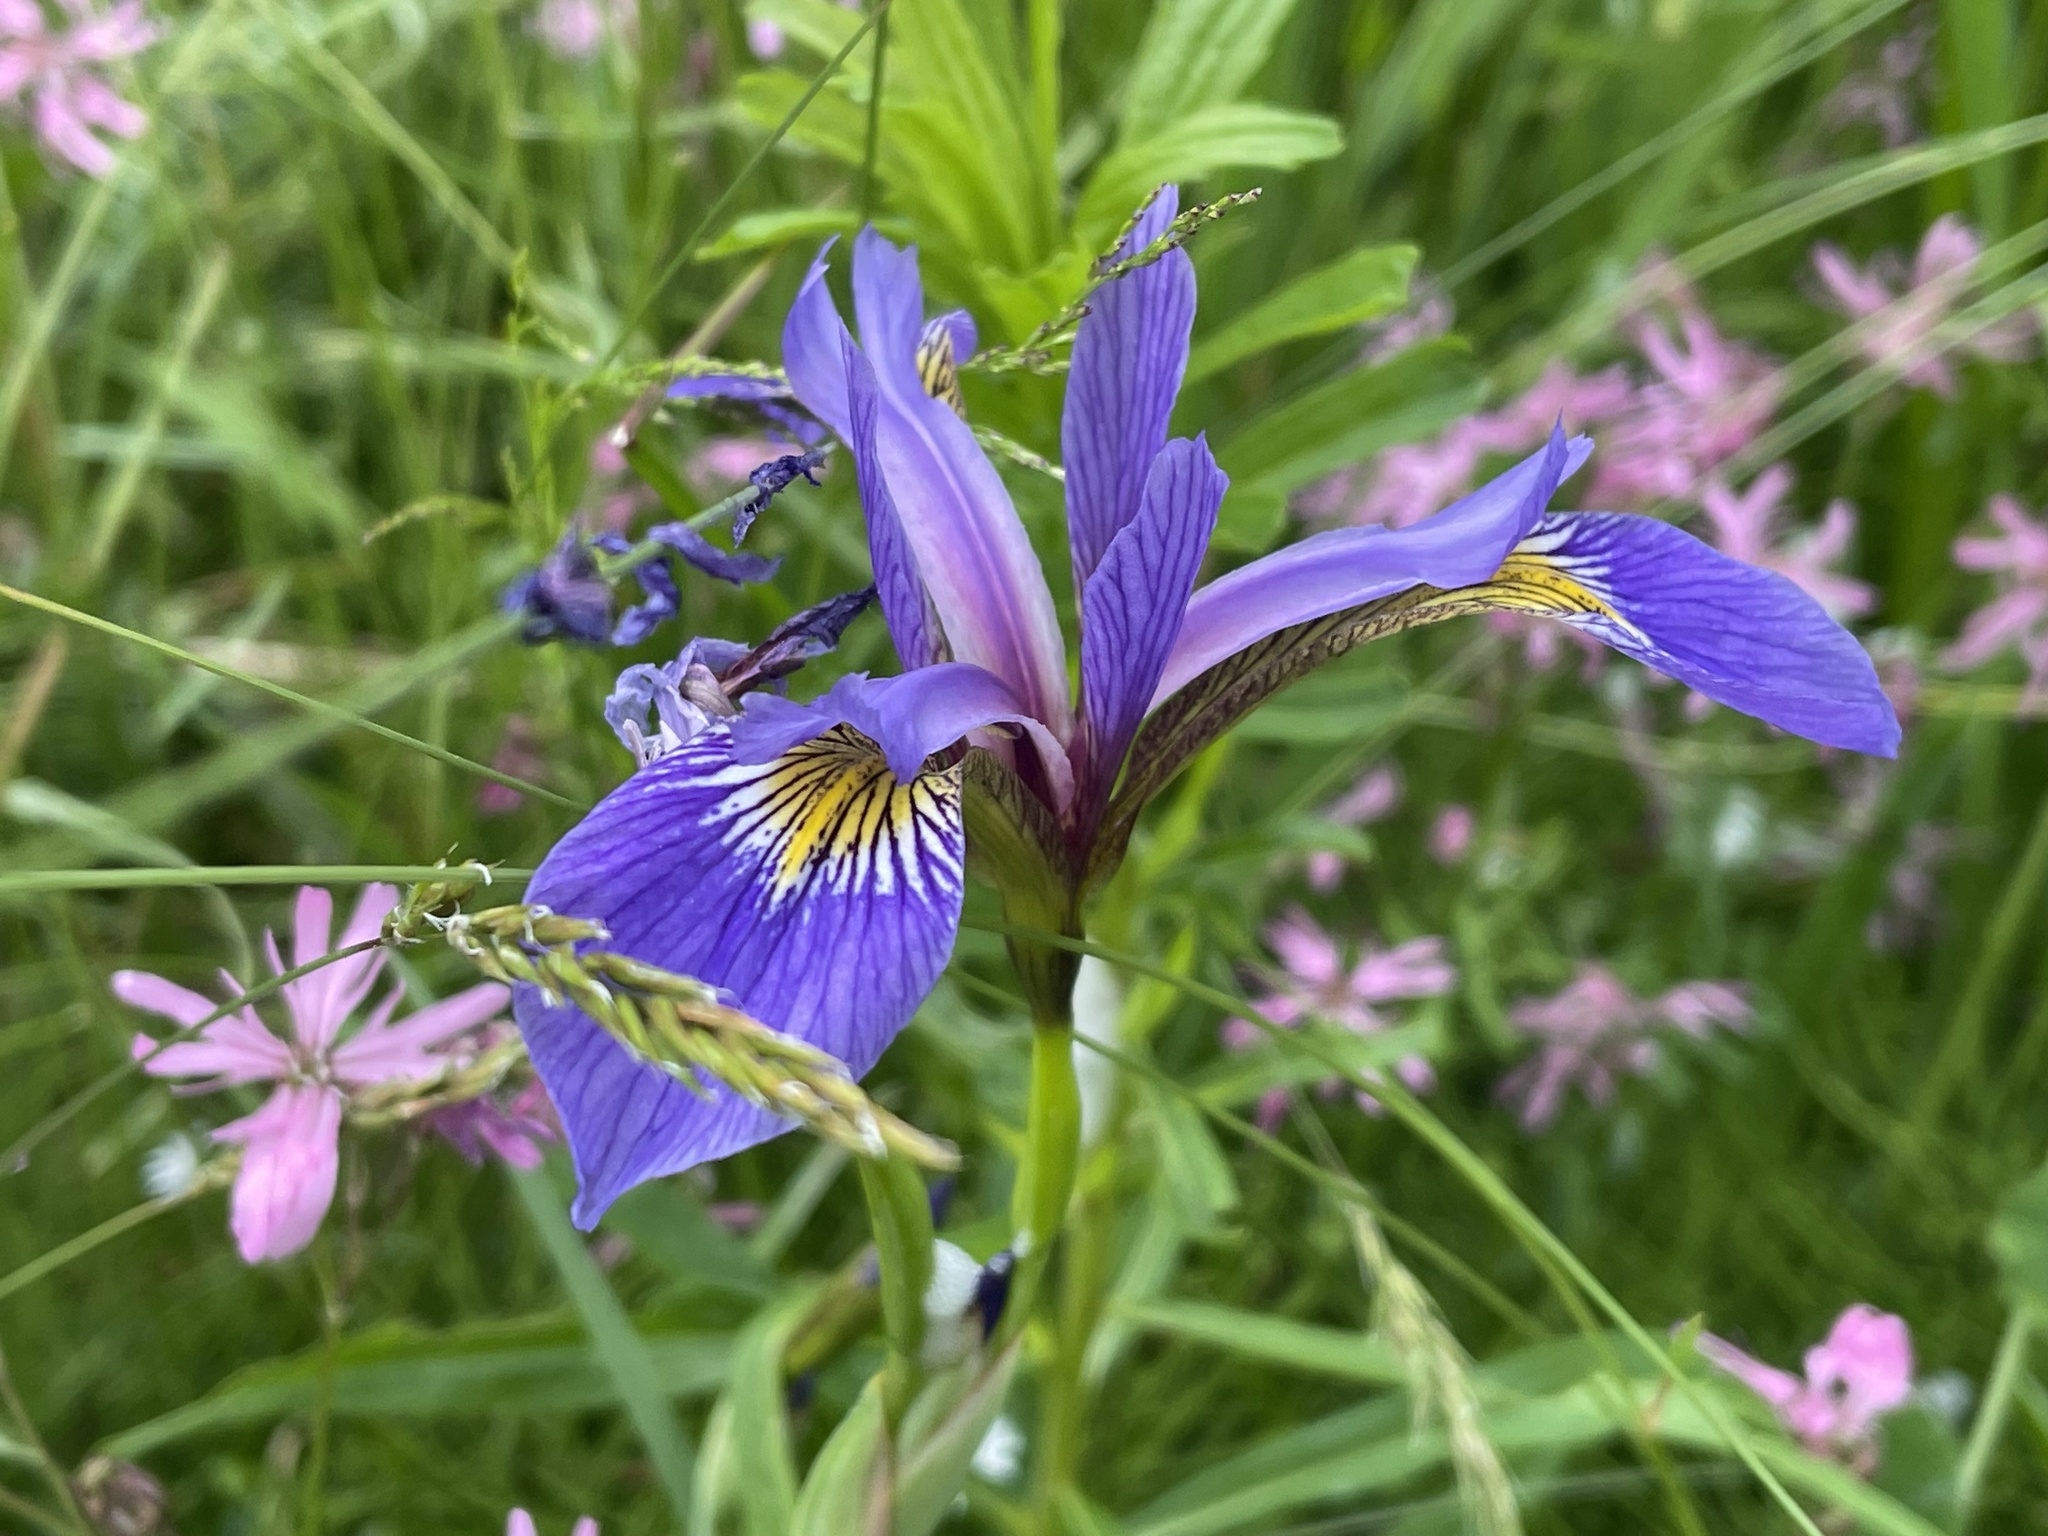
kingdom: Plantae
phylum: Tracheophyta
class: Liliopsida
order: Asparagales
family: Iridaceae
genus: Iris
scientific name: Iris versicolor
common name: Purple iris
